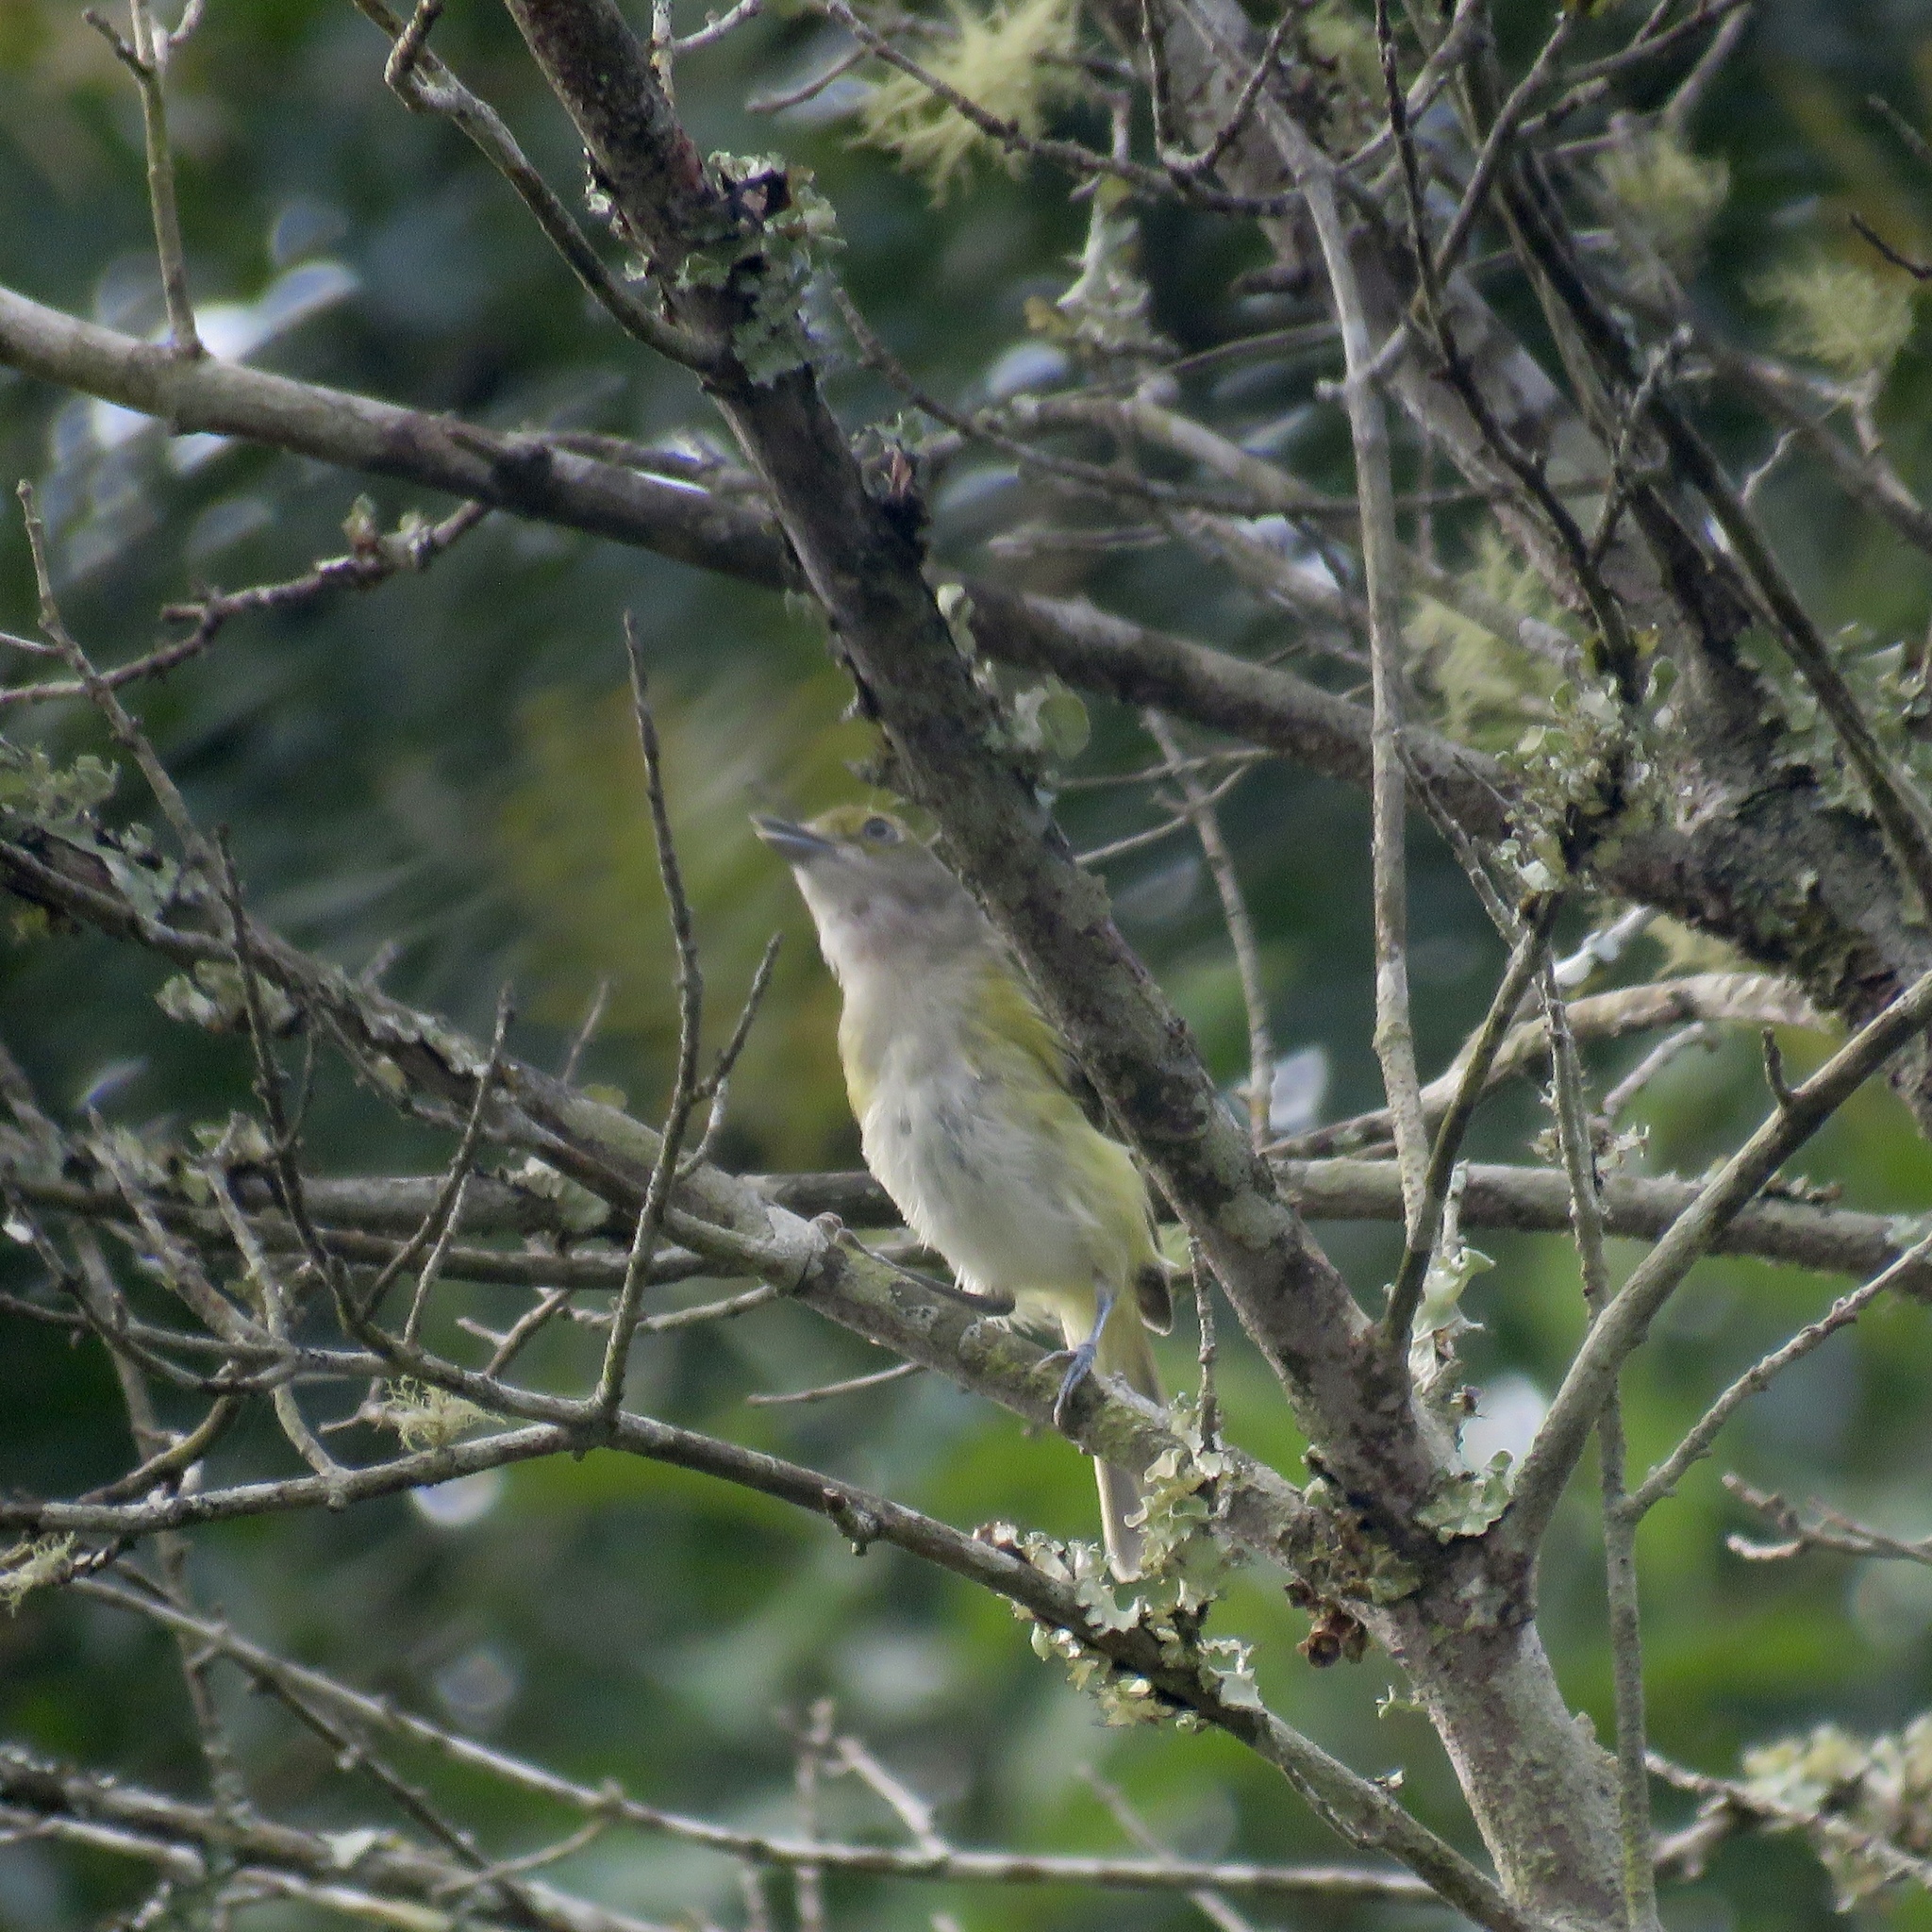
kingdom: Animalia
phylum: Chordata
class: Aves
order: Passeriformes
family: Vireonidae
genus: Vireo
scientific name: Vireo griseus
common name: White-eyed vireo
